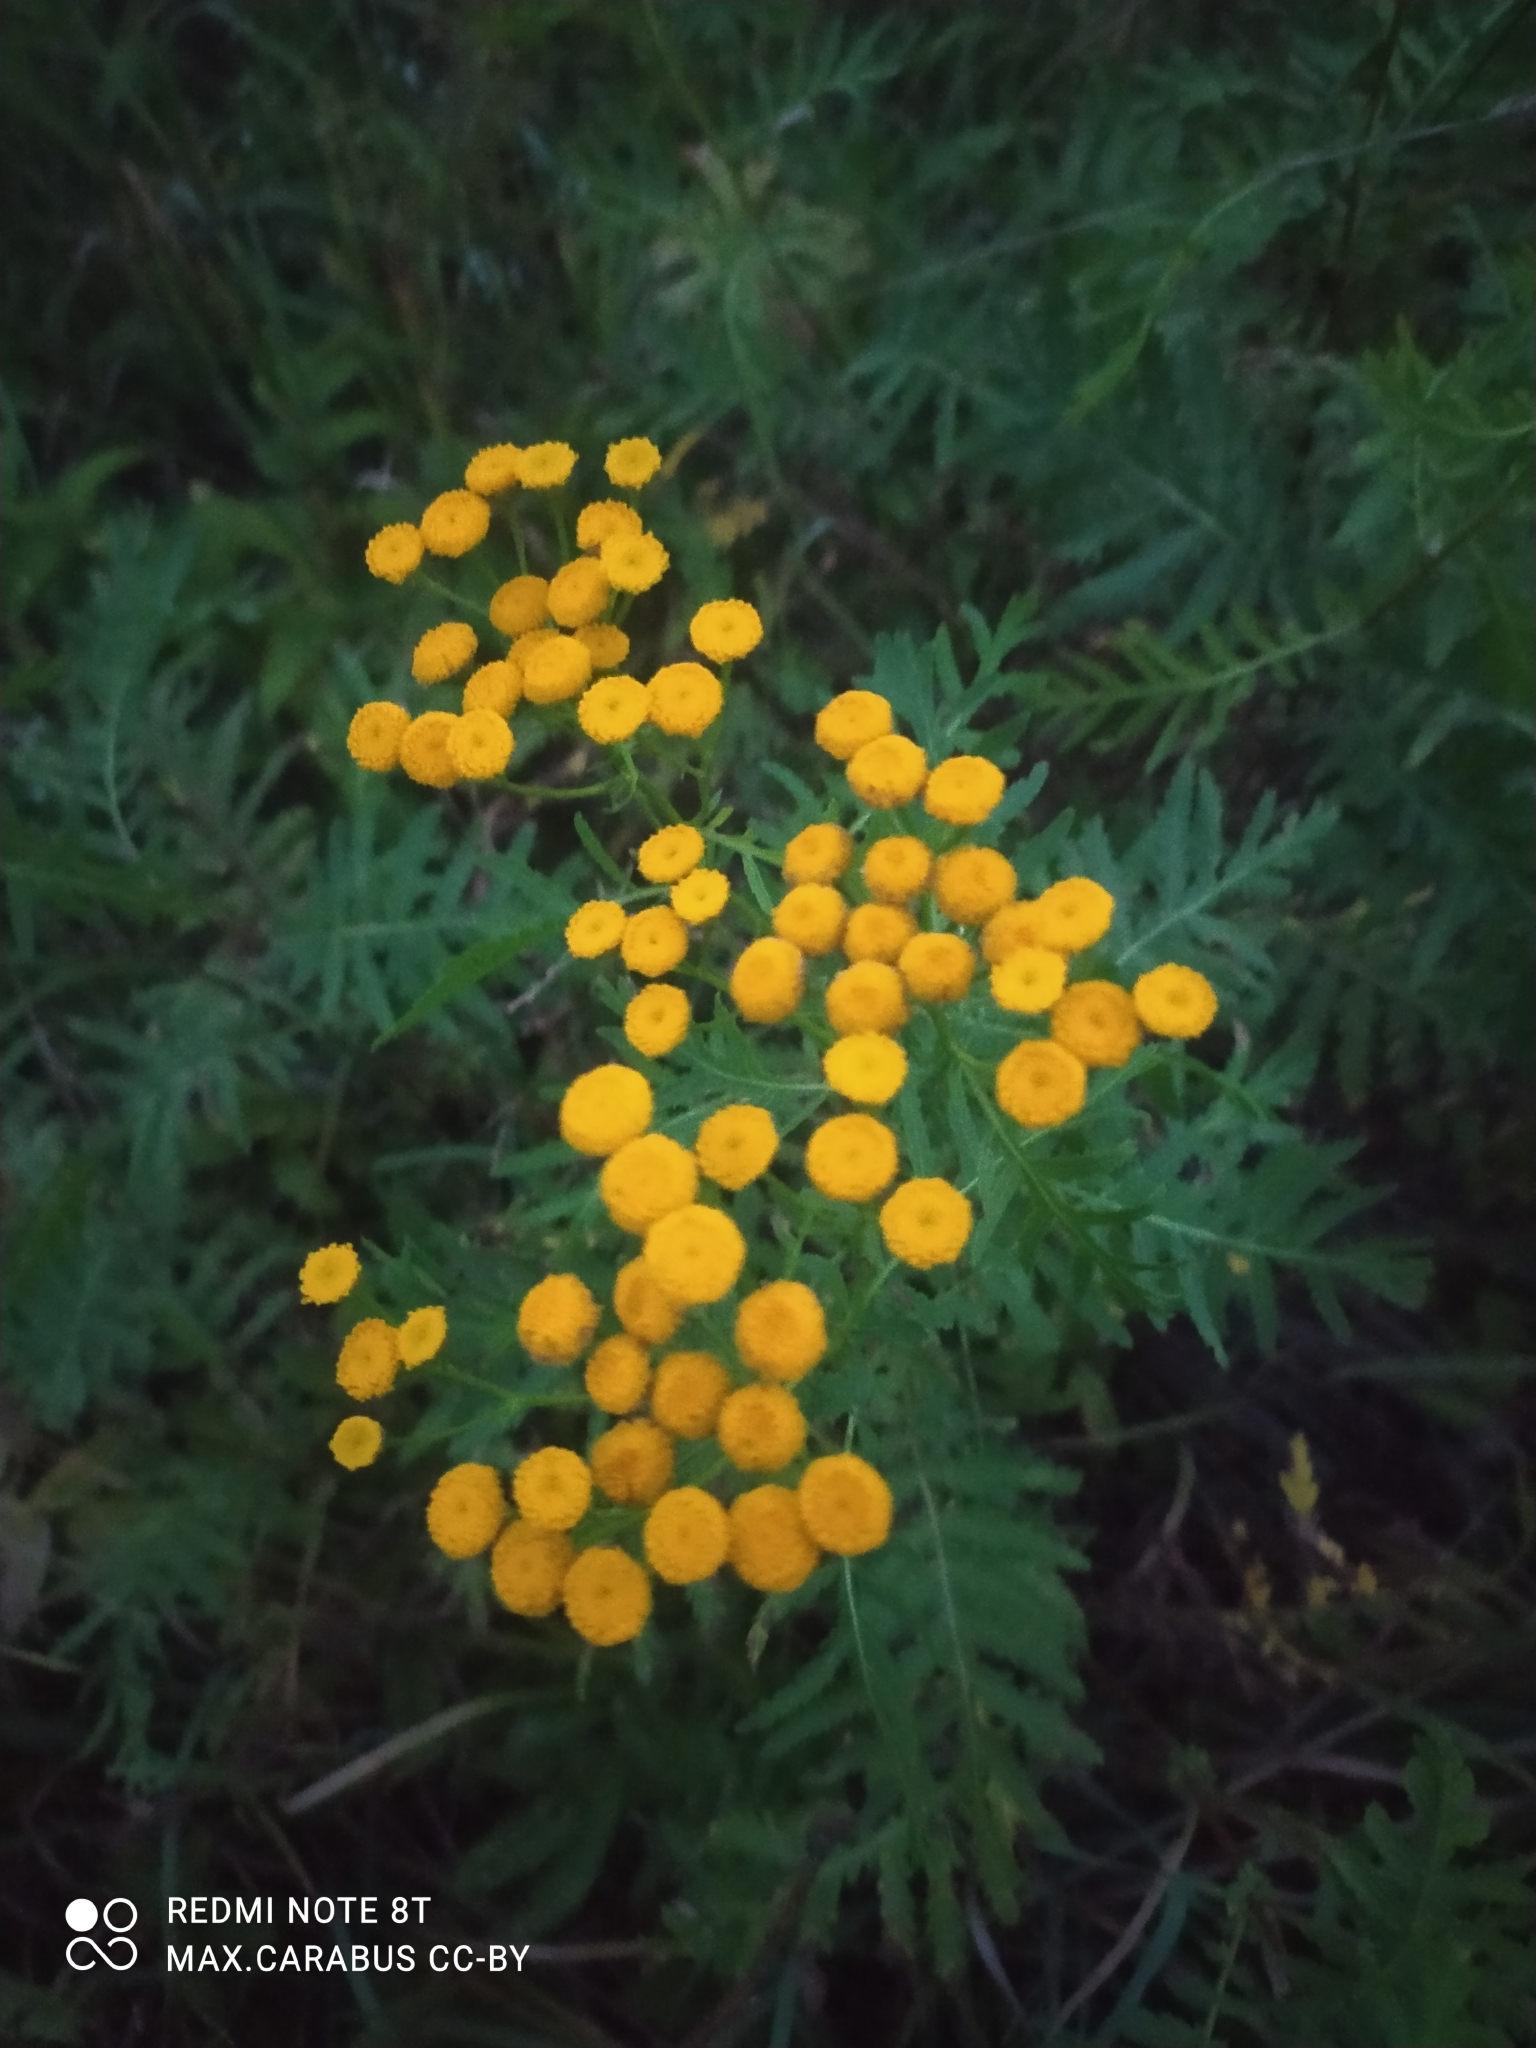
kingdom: Plantae
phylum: Tracheophyta
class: Magnoliopsida
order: Asterales
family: Asteraceae
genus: Tanacetum
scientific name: Tanacetum vulgare
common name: Common tansy
